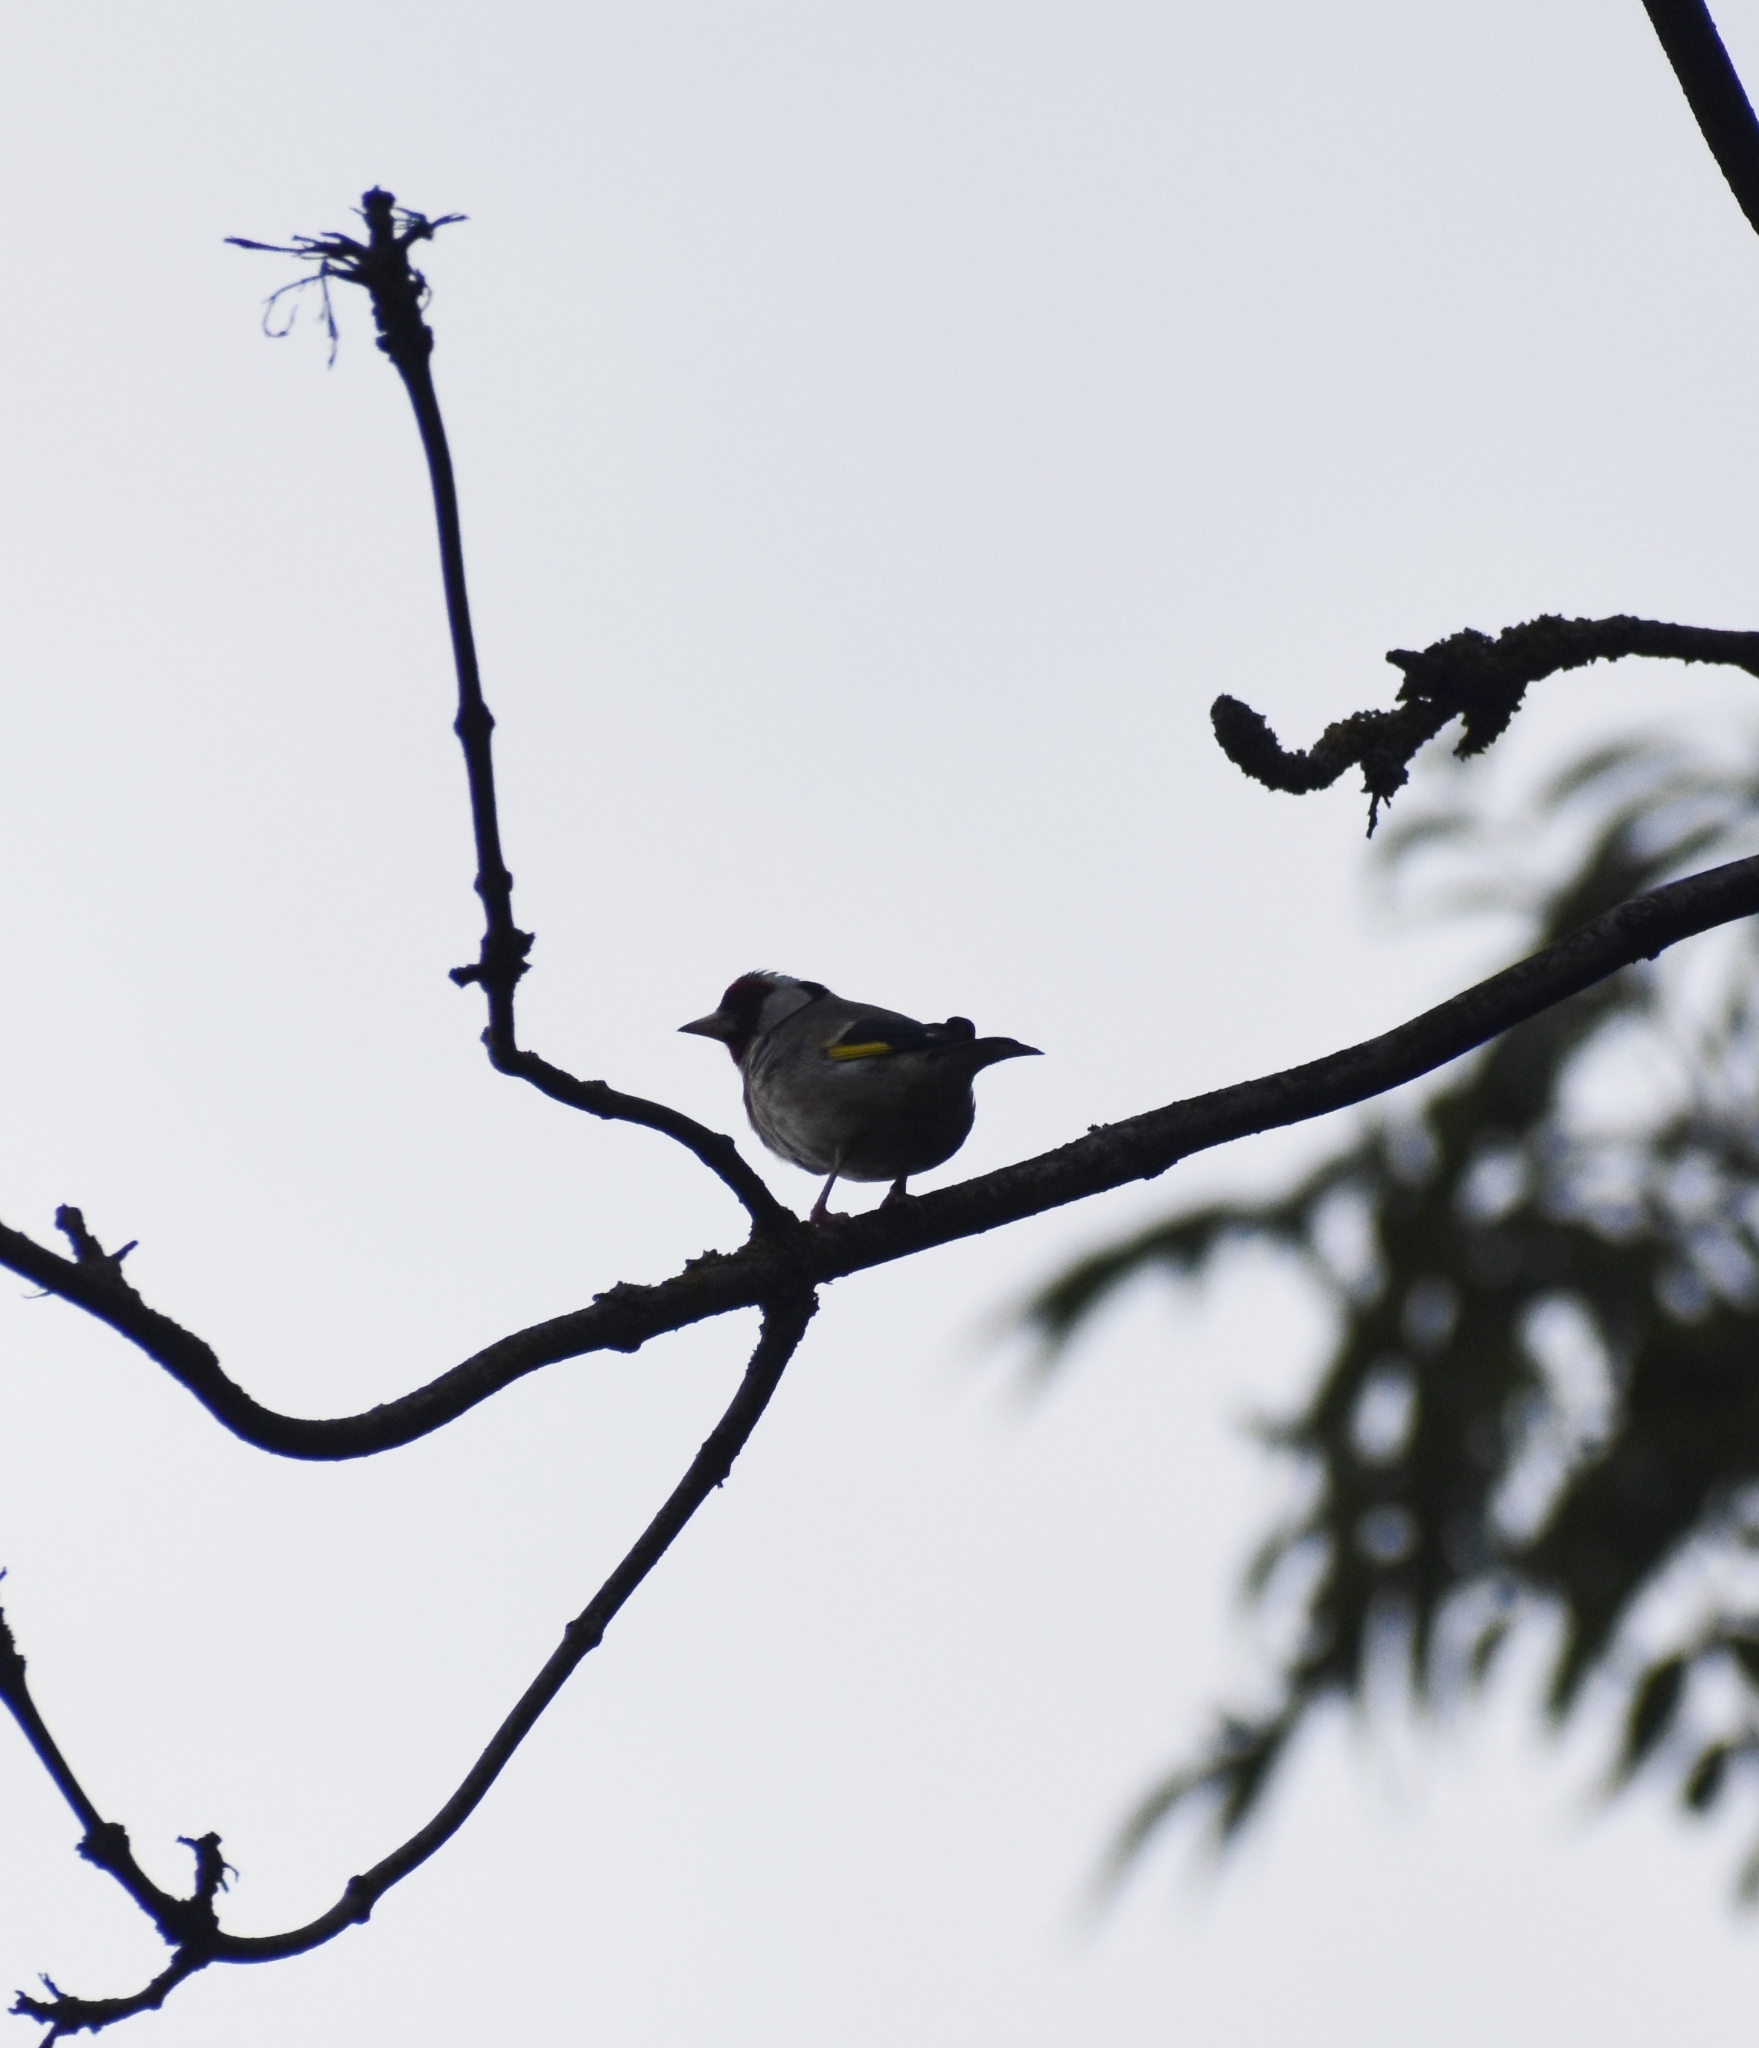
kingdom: Animalia
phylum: Chordata
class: Aves
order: Passeriformes
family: Fringillidae
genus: Carduelis
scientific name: Carduelis carduelis
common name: European goldfinch
